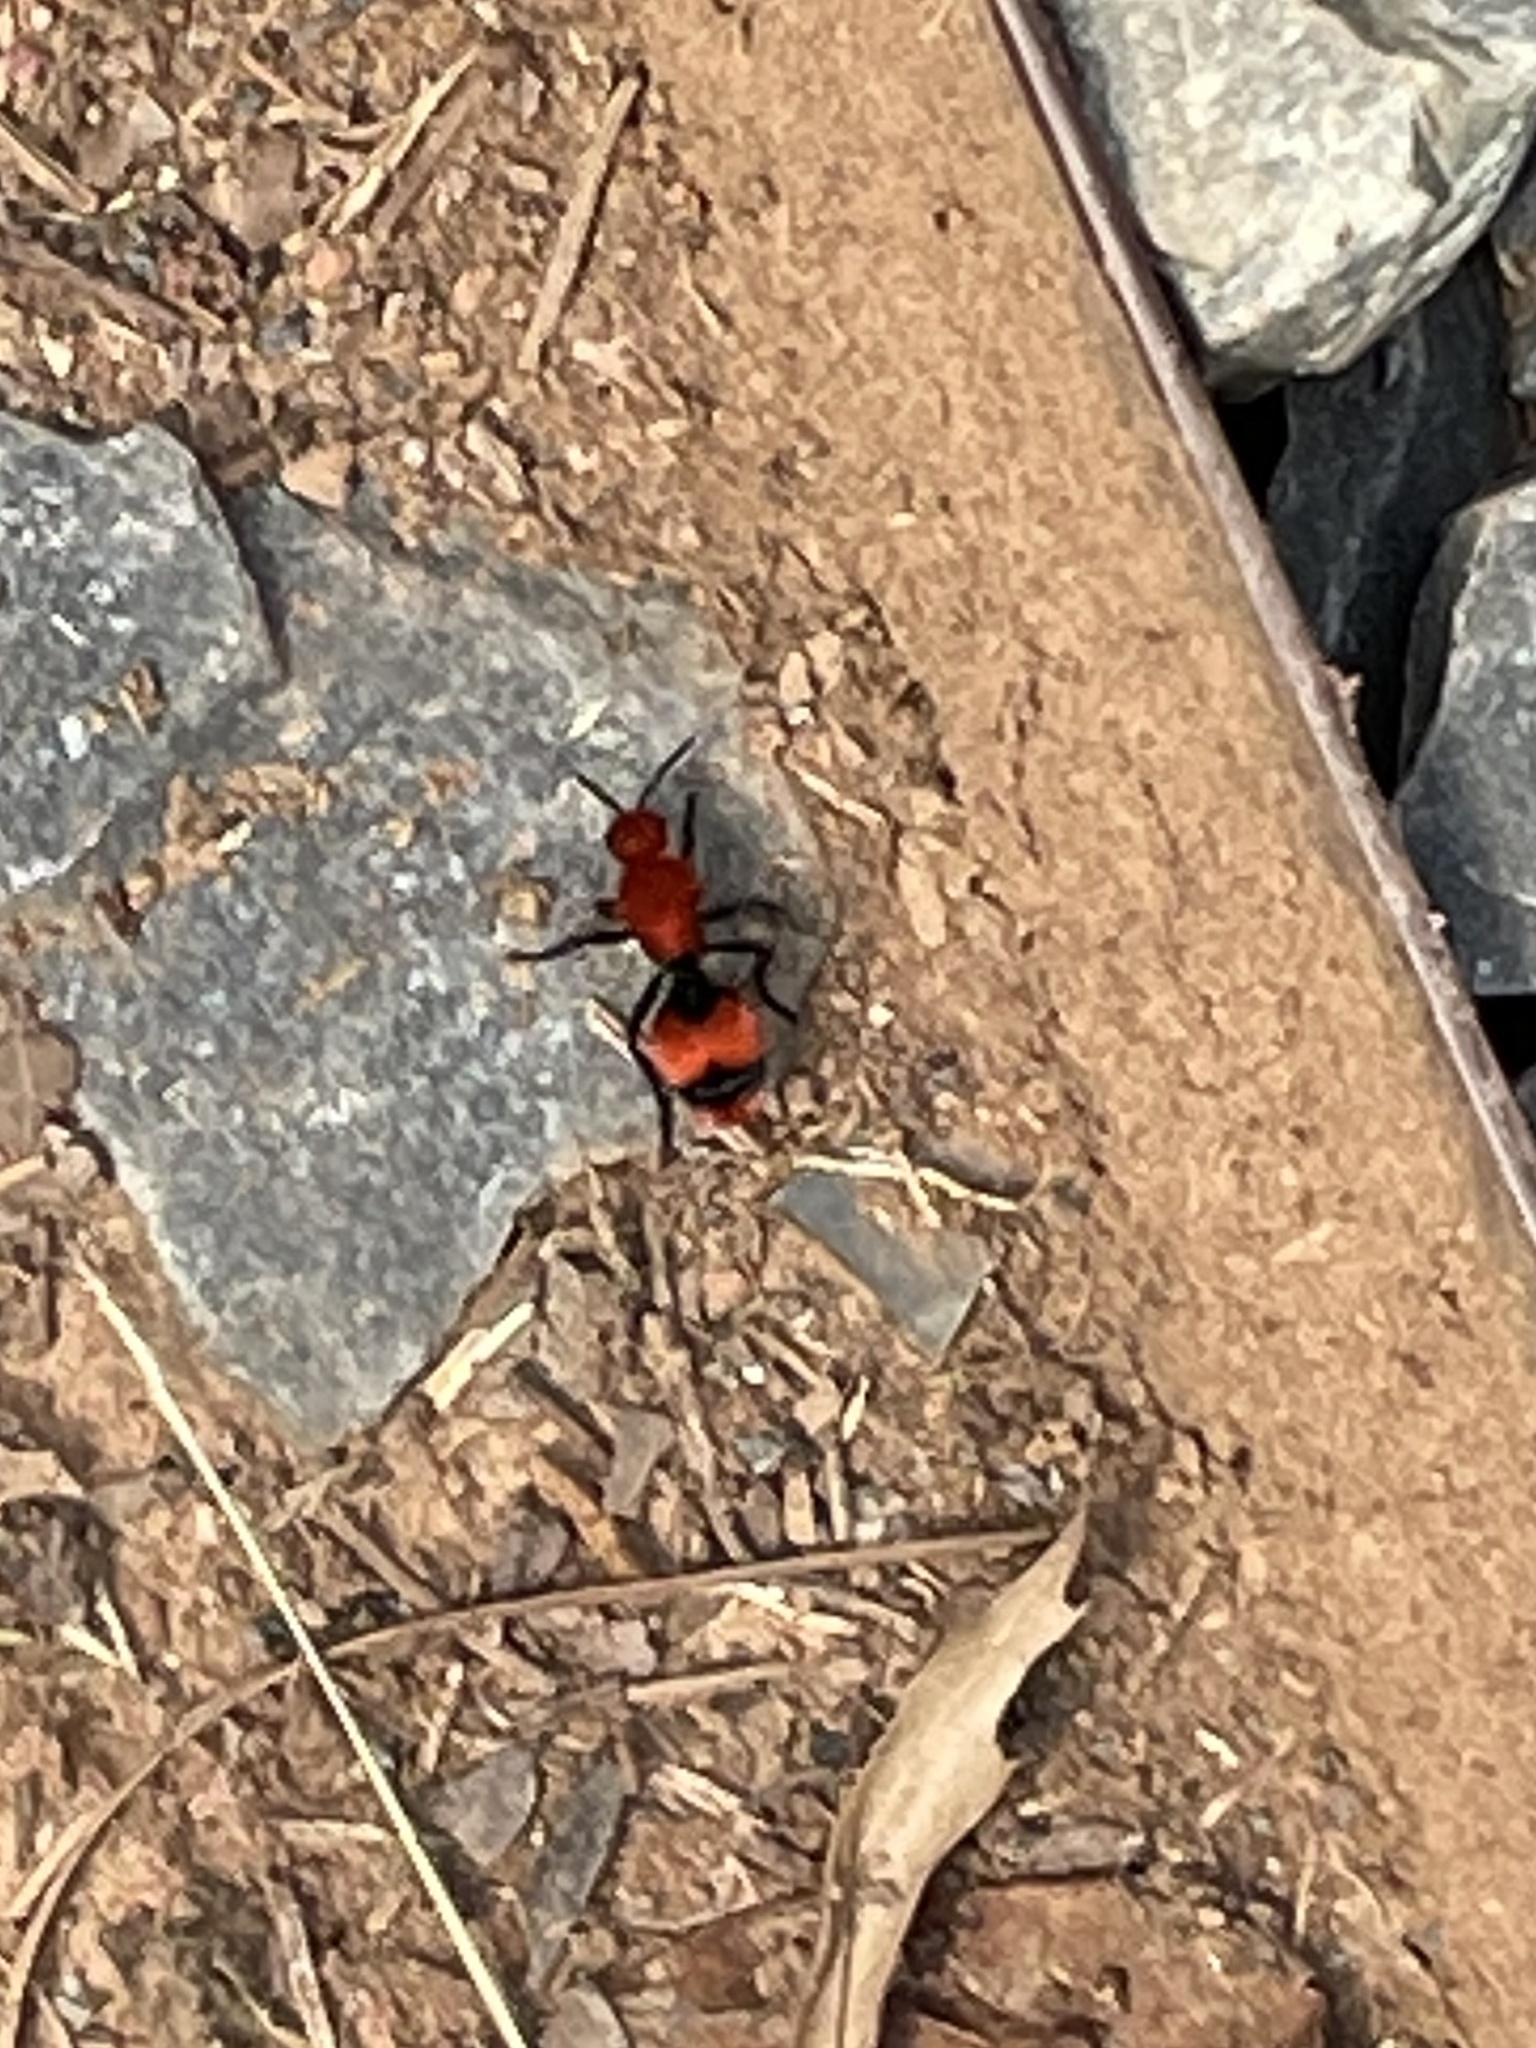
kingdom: Animalia
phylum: Arthropoda
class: Insecta
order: Hymenoptera
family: Mutillidae
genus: Dasymutilla
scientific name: Dasymutilla occidentalis
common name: Common eastern velvet ant
